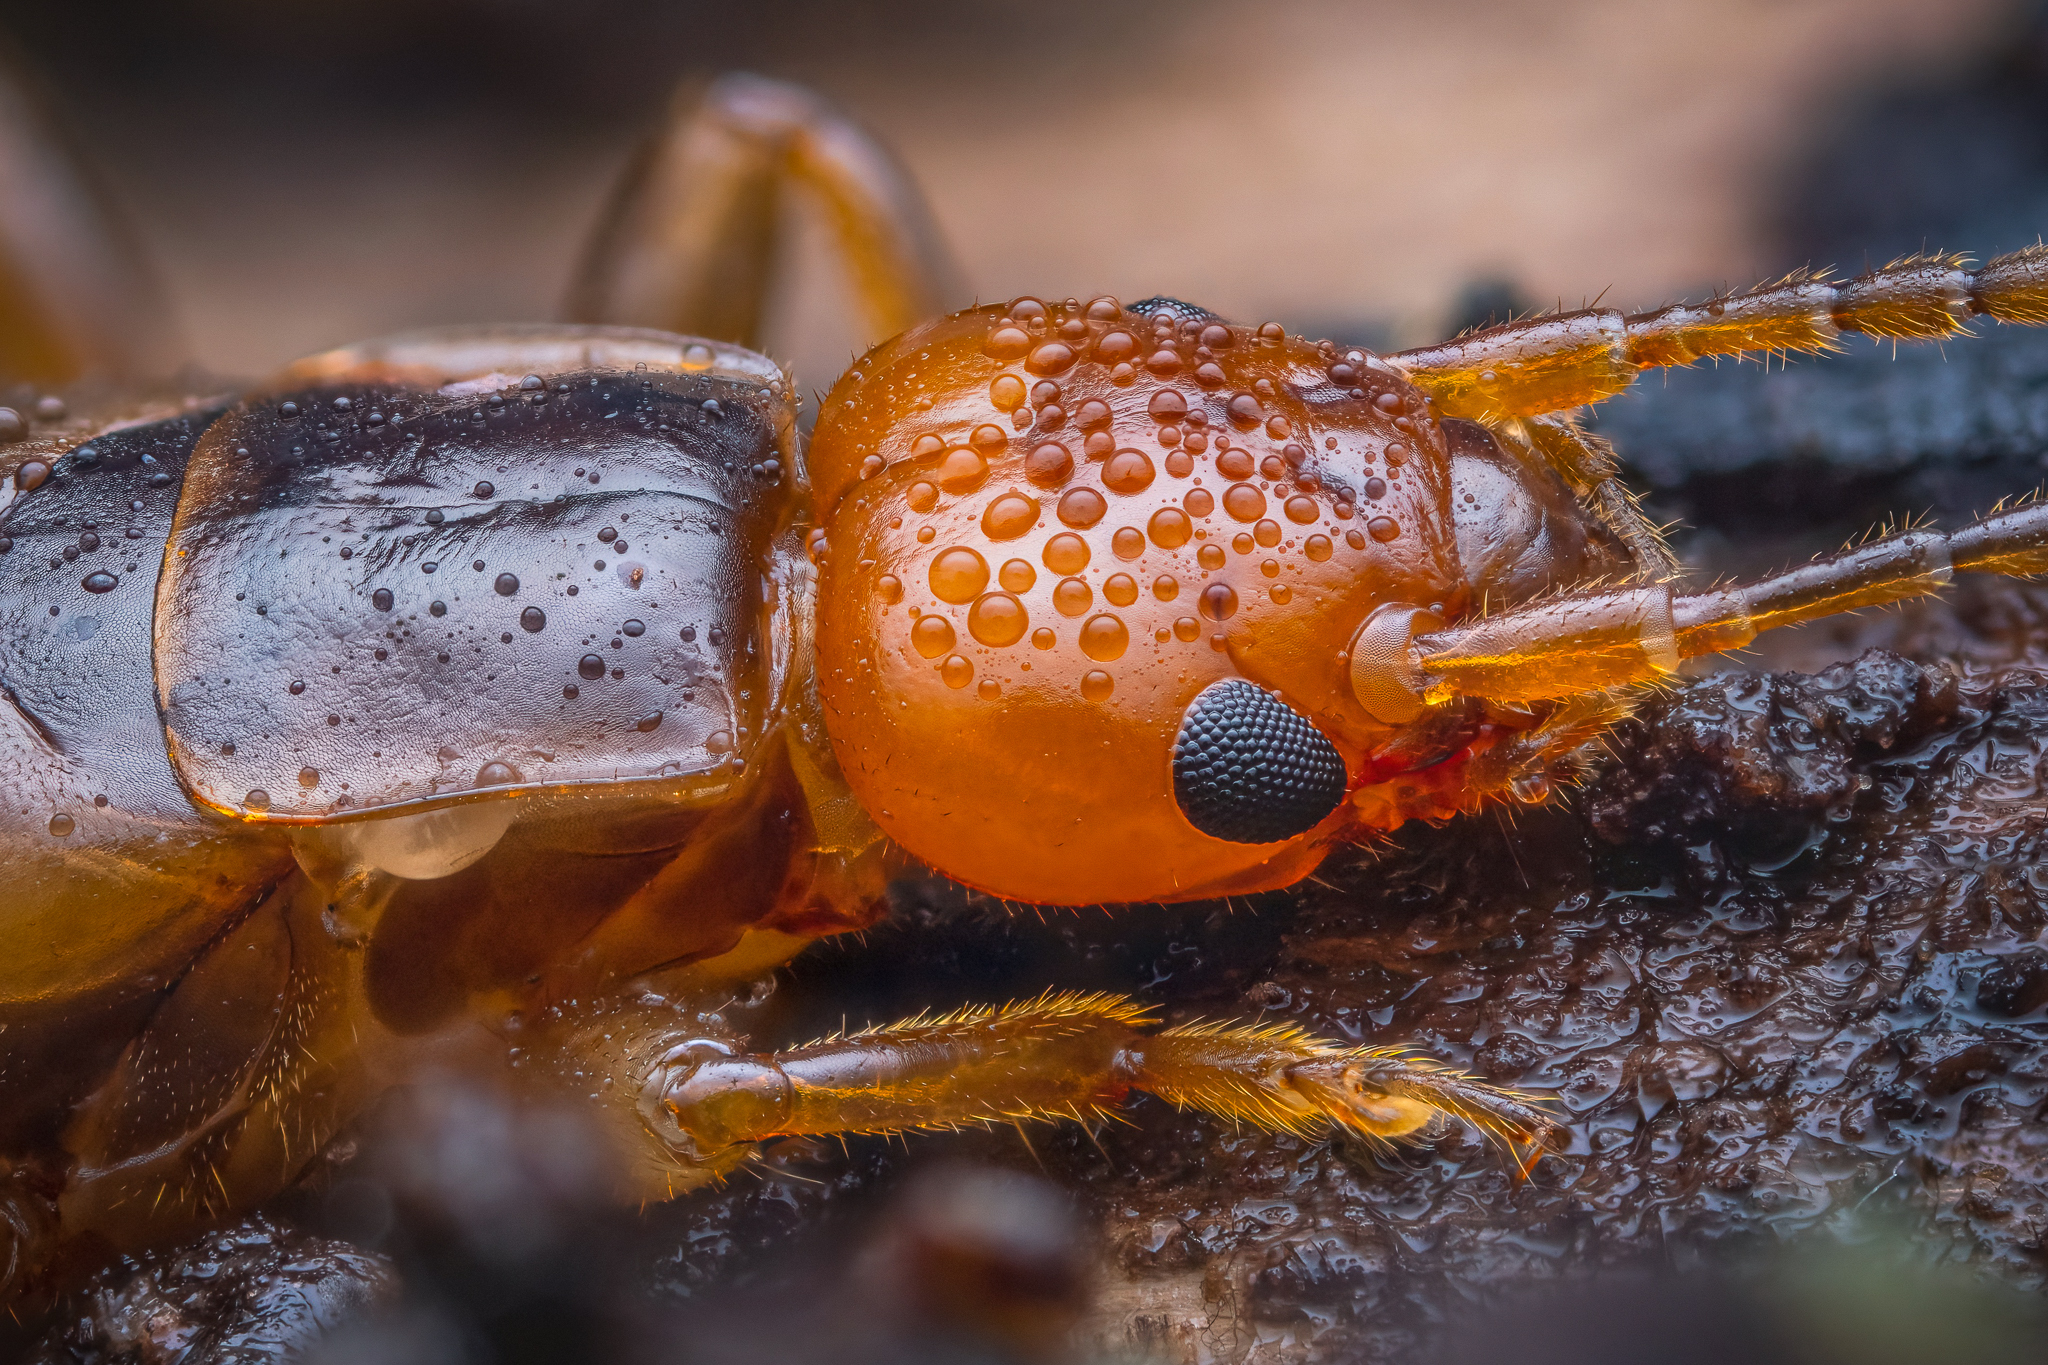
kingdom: Animalia
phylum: Arthropoda
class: Insecta
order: Dermaptera
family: Forficulidae
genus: Chelidurella
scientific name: Chelidurella acanthopygia
